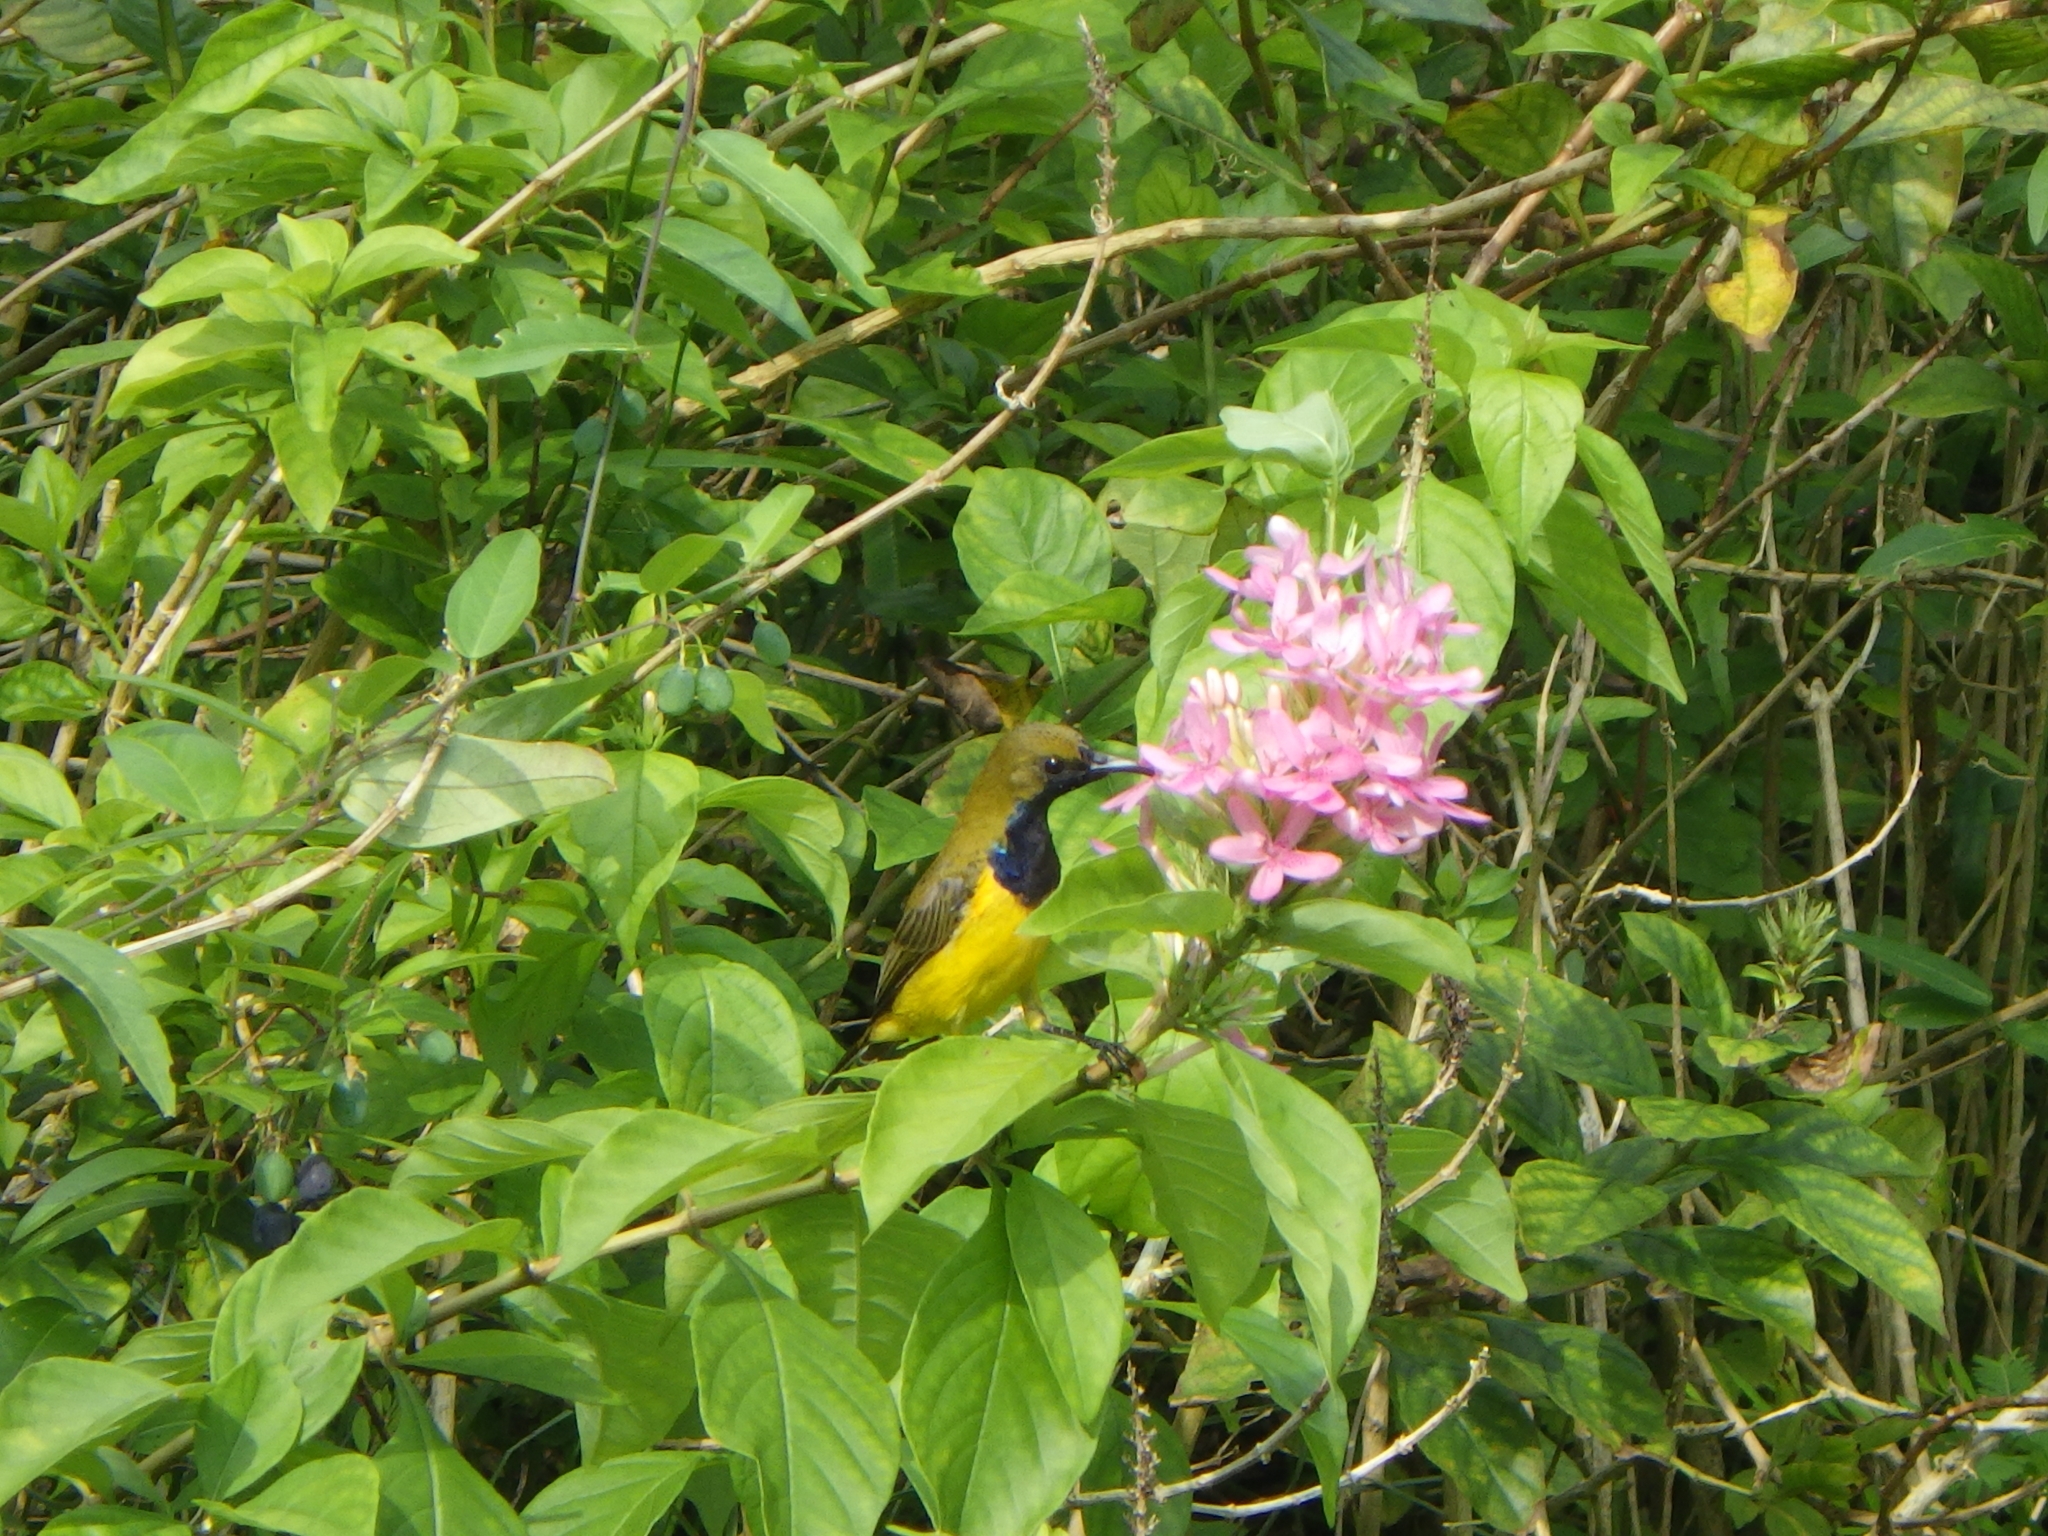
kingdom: Animalia
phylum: Chordata
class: Aves
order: Passeriformes
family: Nectariniidae
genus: Cinnyris
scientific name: Cinnyris
